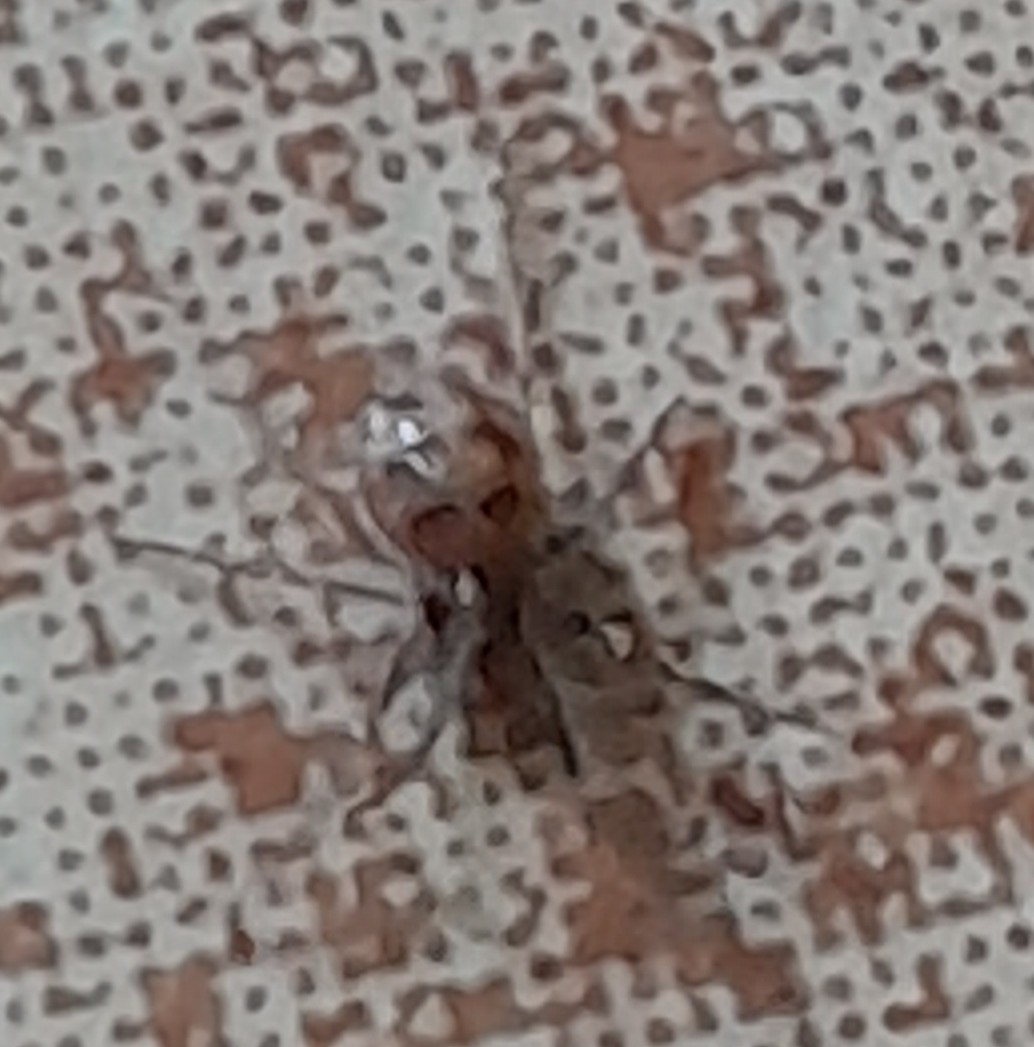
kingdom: Animalia
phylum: Arthropoda
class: Arachnida
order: Araneae
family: Theridiidae
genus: Steatoda
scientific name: Steatoda triangulosa
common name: Triangulate bud spider
